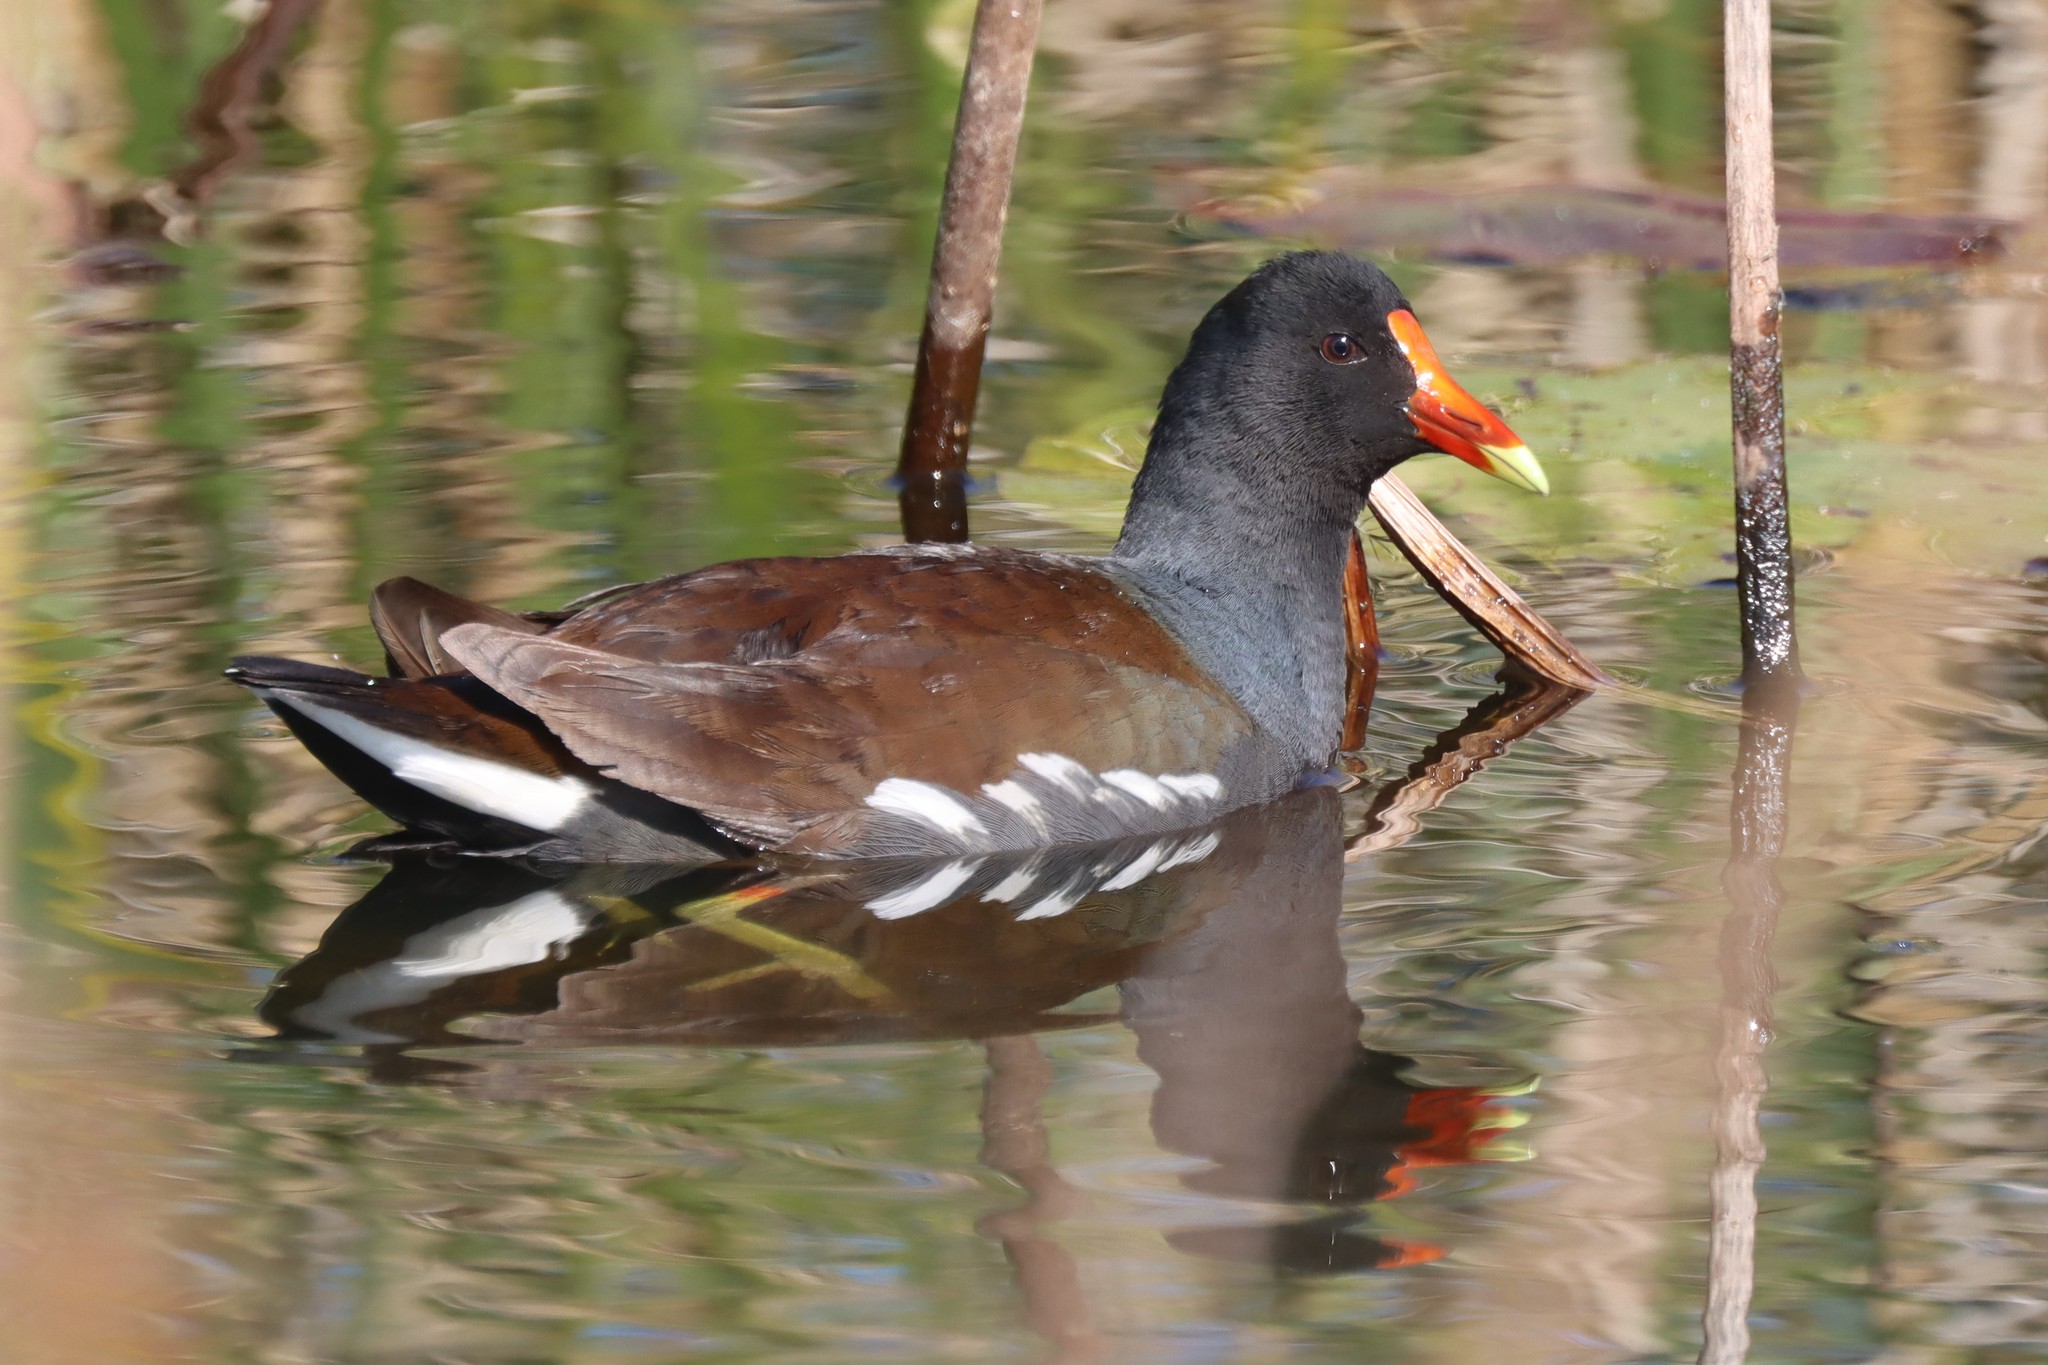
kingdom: Animalia
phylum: Chordata
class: Aves
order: Gruiformes
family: Rallidae
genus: Gallinula
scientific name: Gallinula chloropus
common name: Common moorhen
